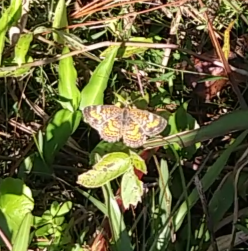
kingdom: Animalia
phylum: Arthropoda
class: Insecta
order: Lepidoptera
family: Nymphalidae
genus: Phyciodes
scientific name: Phyciodes phaon
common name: Phaon crescent
